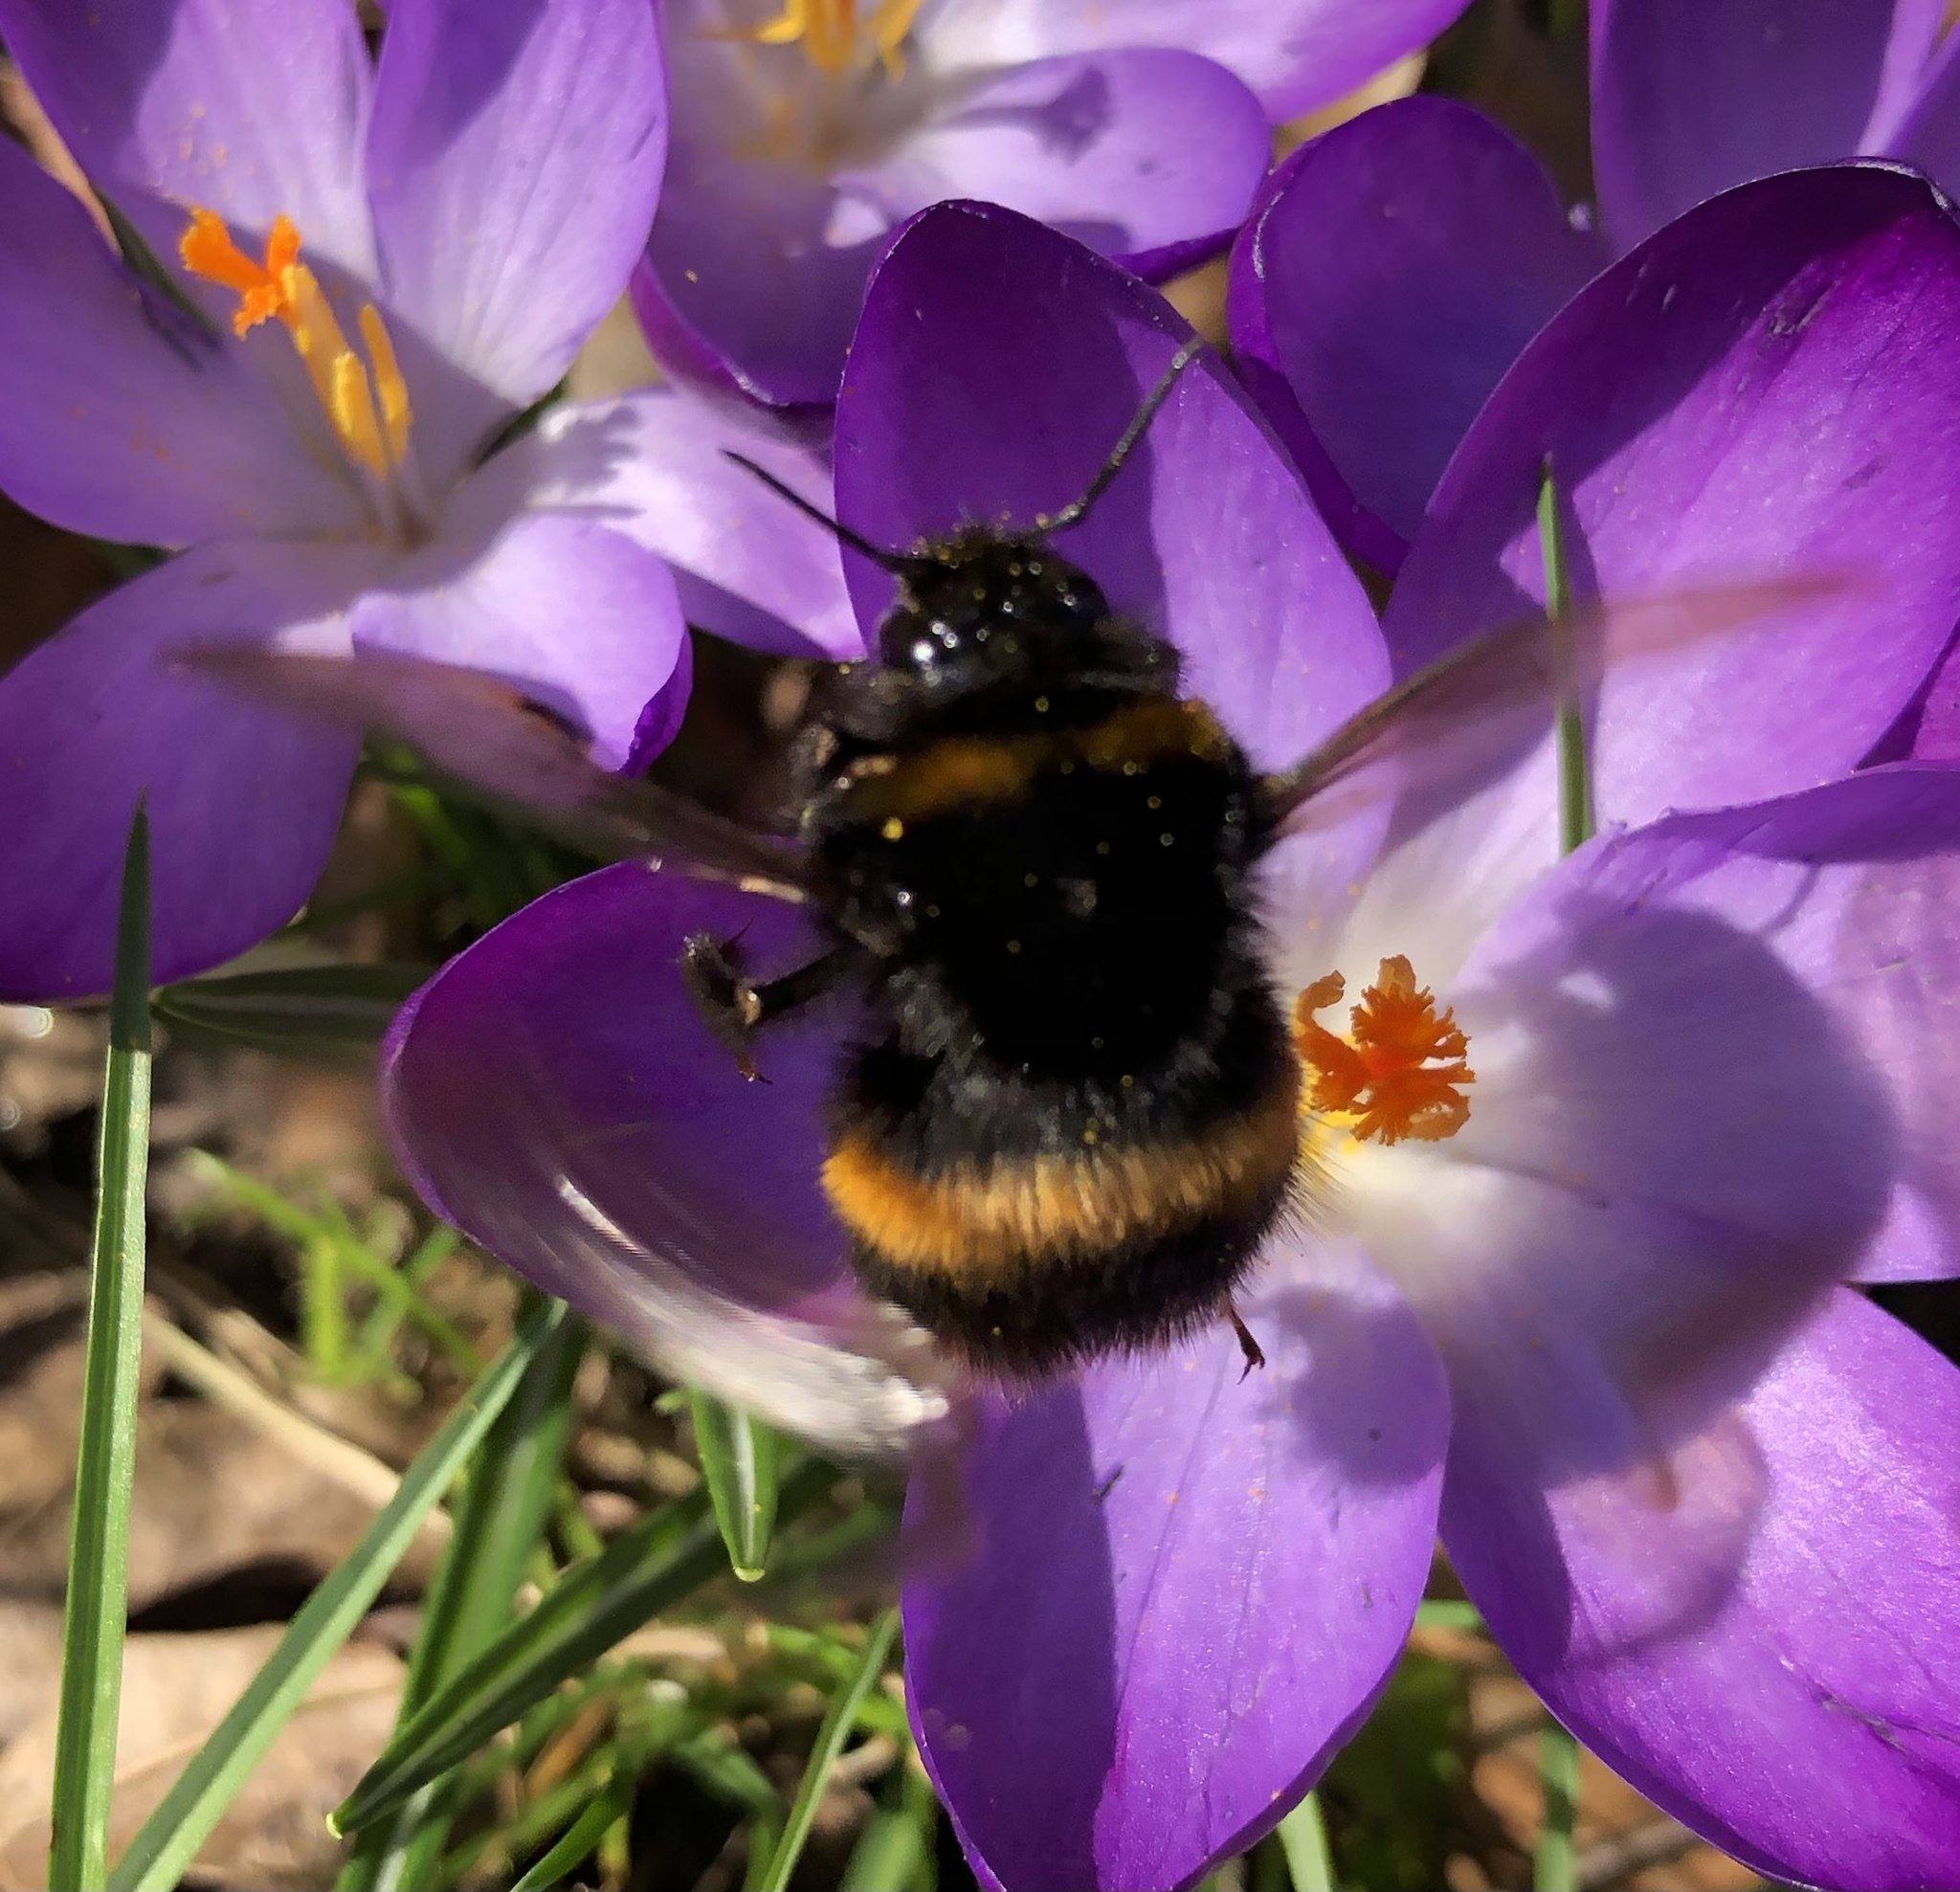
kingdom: Animalia
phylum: Arthropoda
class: Insecta
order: Hymenoptera
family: Apidae
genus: Bombus
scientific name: Bombus terrestris
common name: Buff-tailed bumblebee
